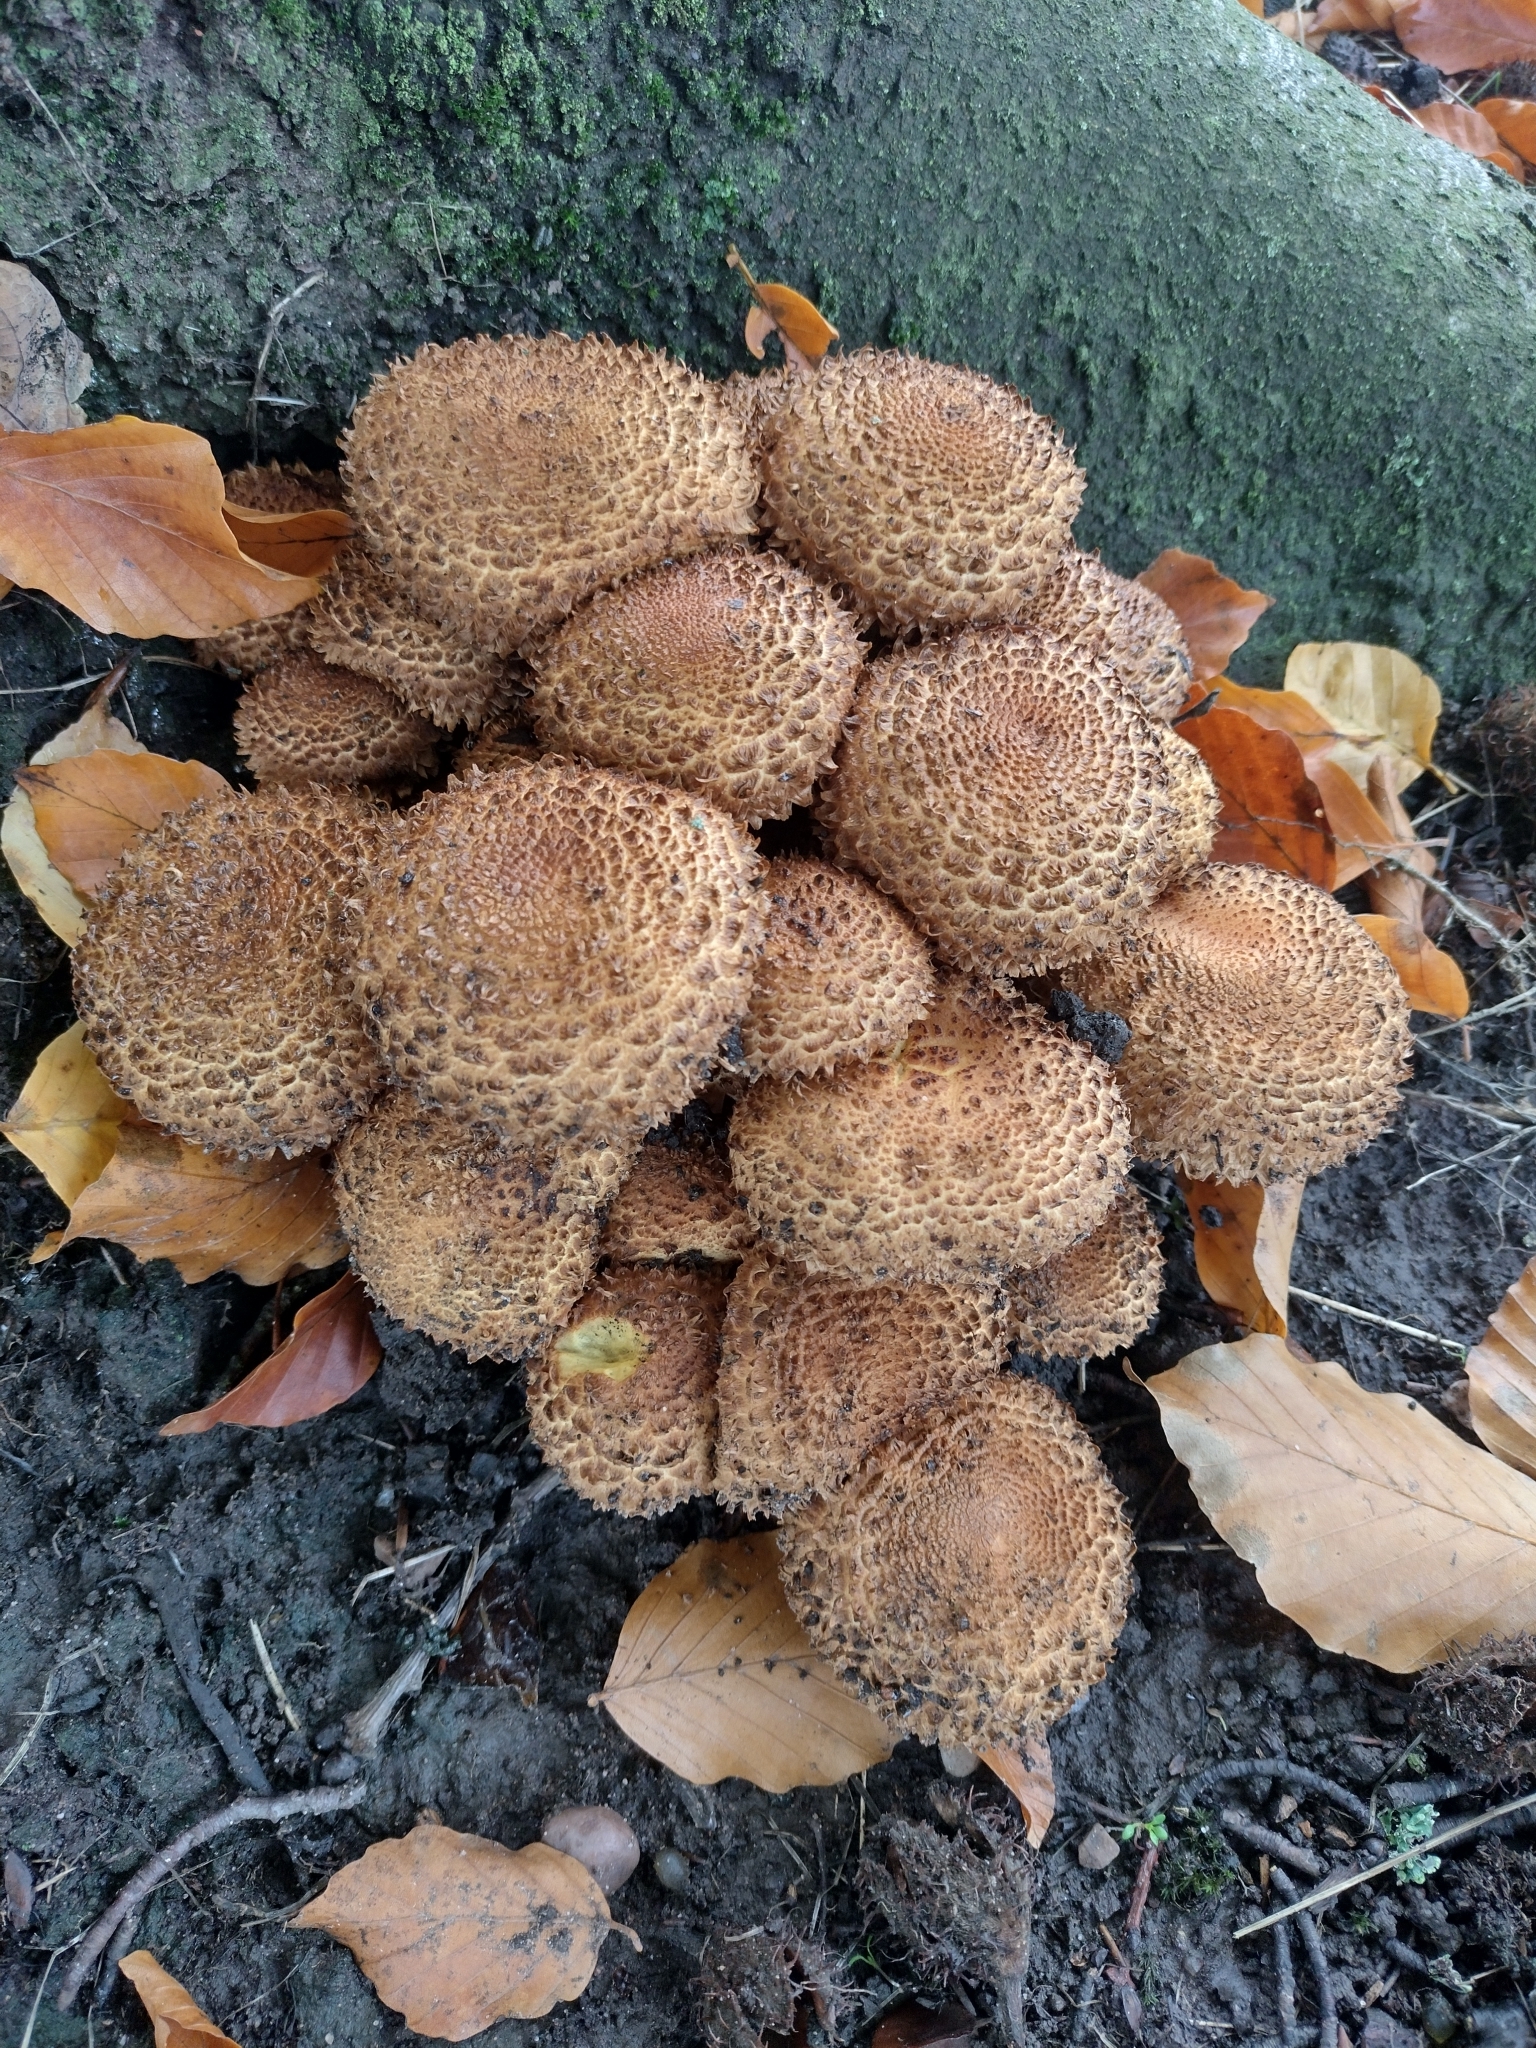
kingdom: Fungi
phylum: Basidiomycota
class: Agaricomycetes
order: Agaricales
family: Strophariaceae
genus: Pholiota
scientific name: Pholiota squarrosa
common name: Shaggy pholiota
